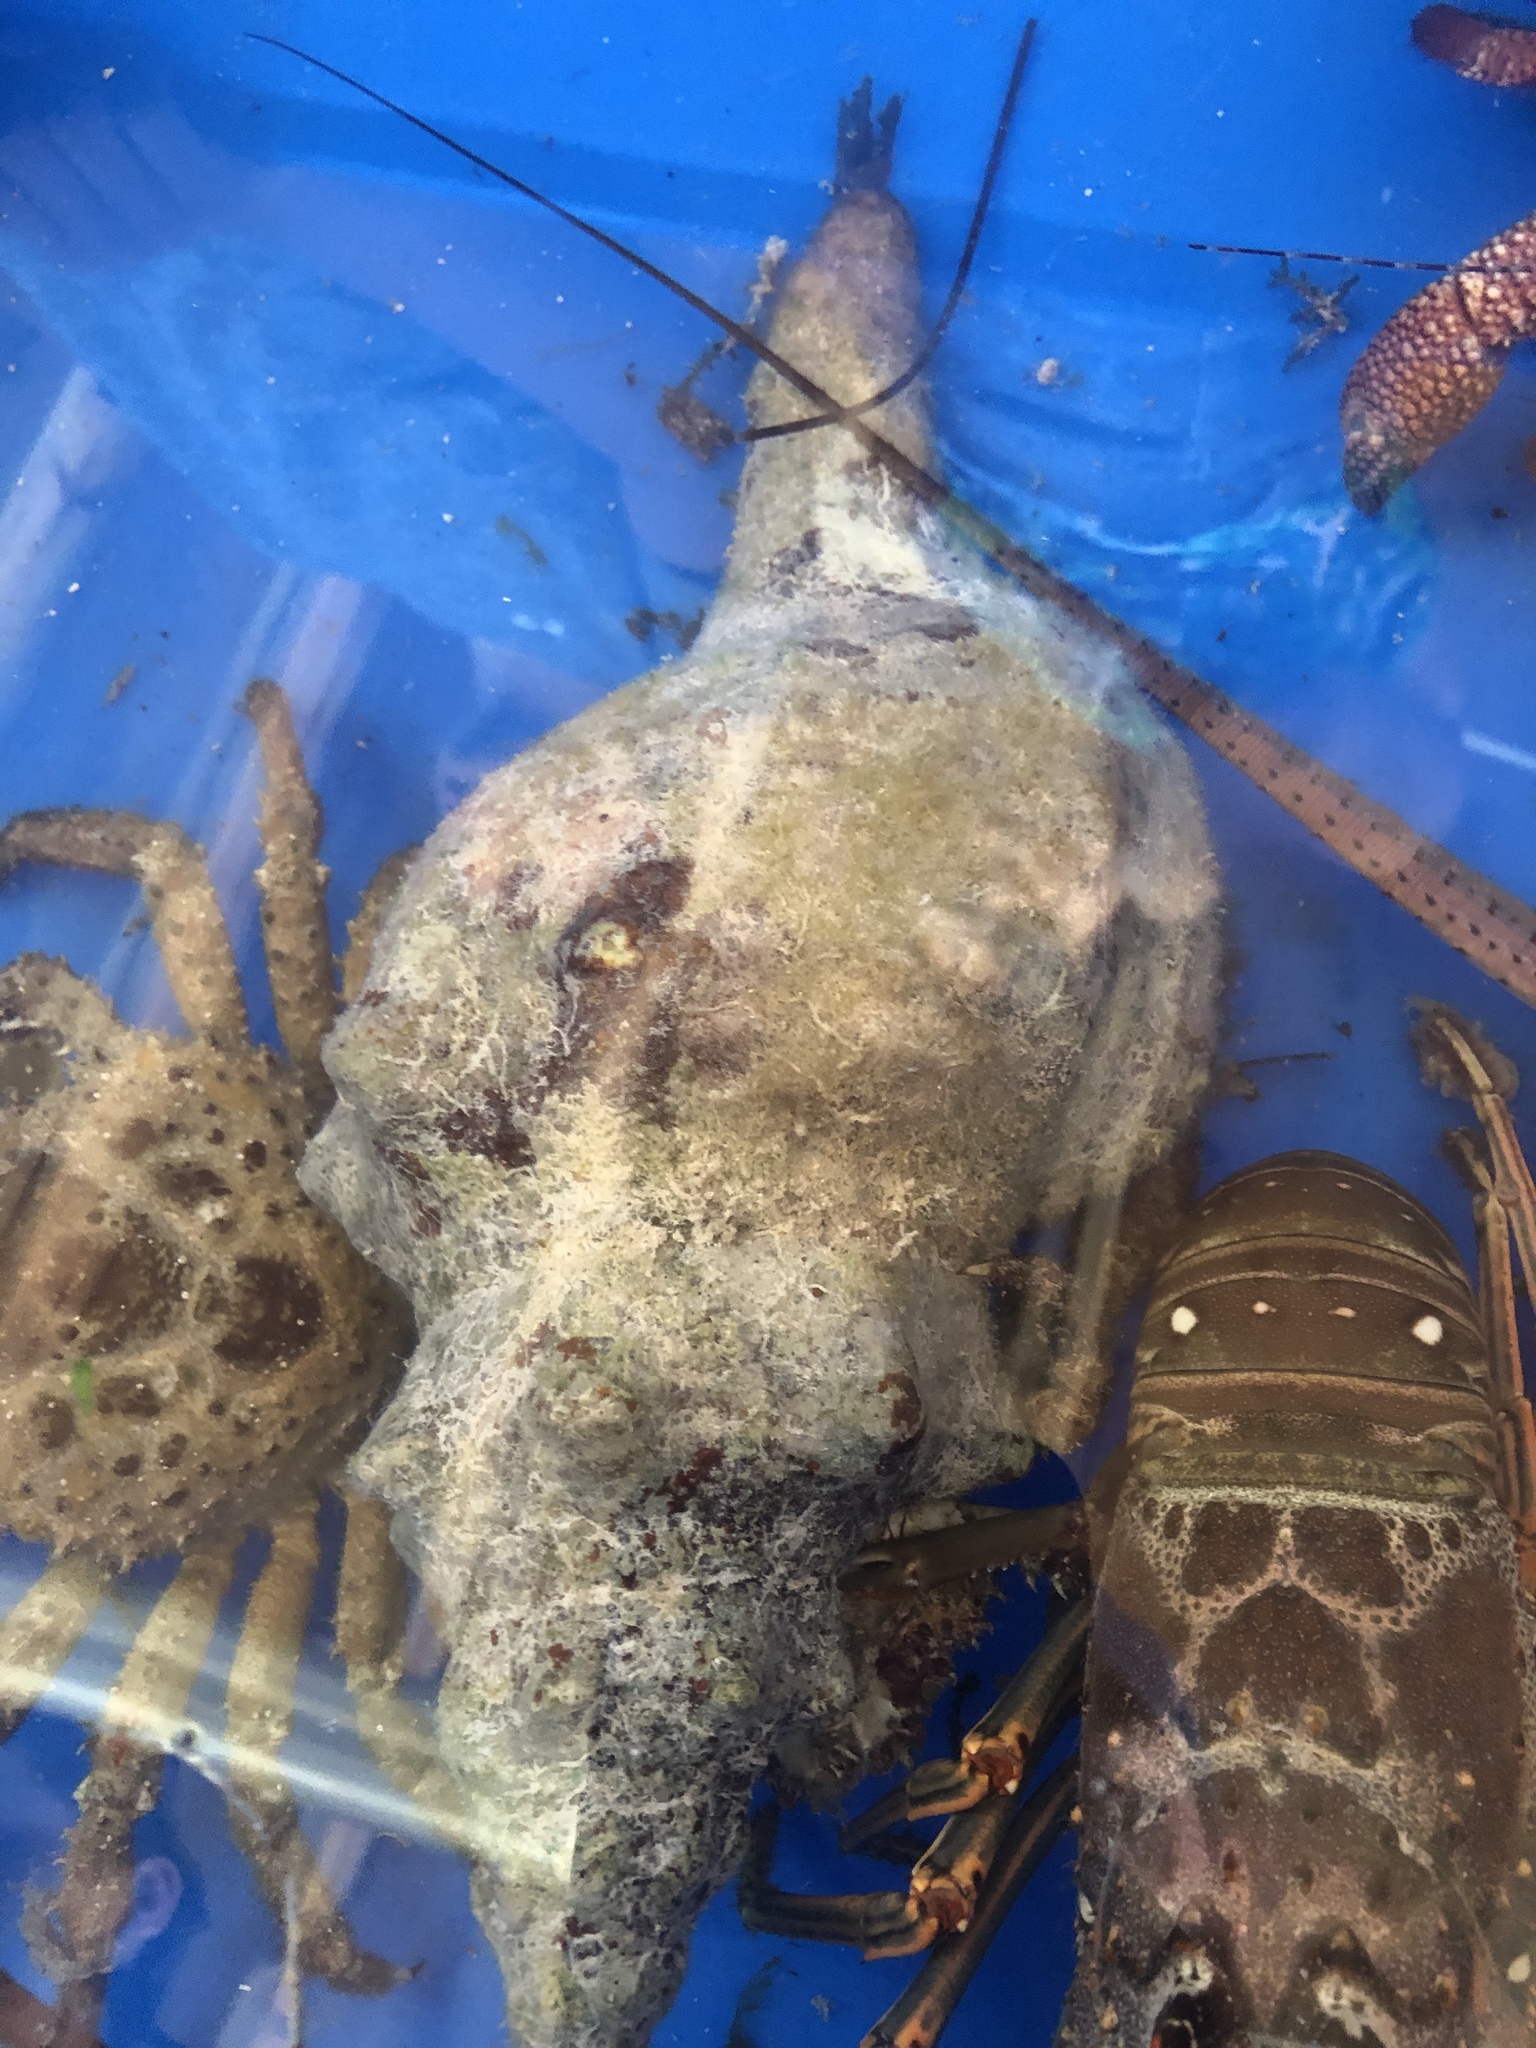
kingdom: Animalia
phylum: Mollusca
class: Gastropoda
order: Neogastropoda
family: Fasciolariidae
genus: Triplofusus
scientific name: Triplofusus giganteus
